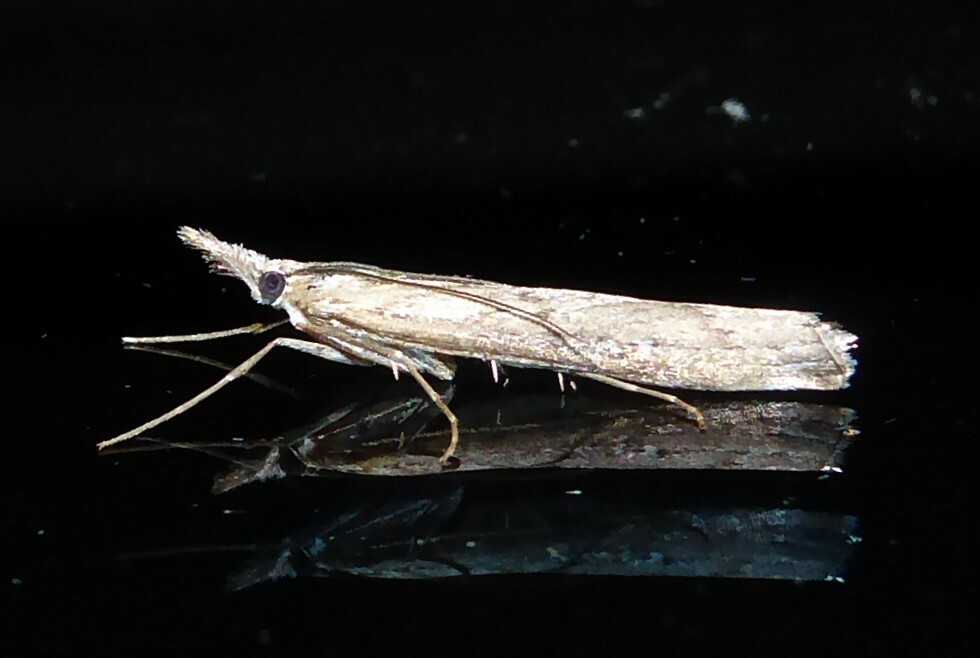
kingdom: Animalia
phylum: Arthropoda
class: Insecta
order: Lepidoptera
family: Crambidae
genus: Orocrambus
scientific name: Orocrambus cyclopicus
